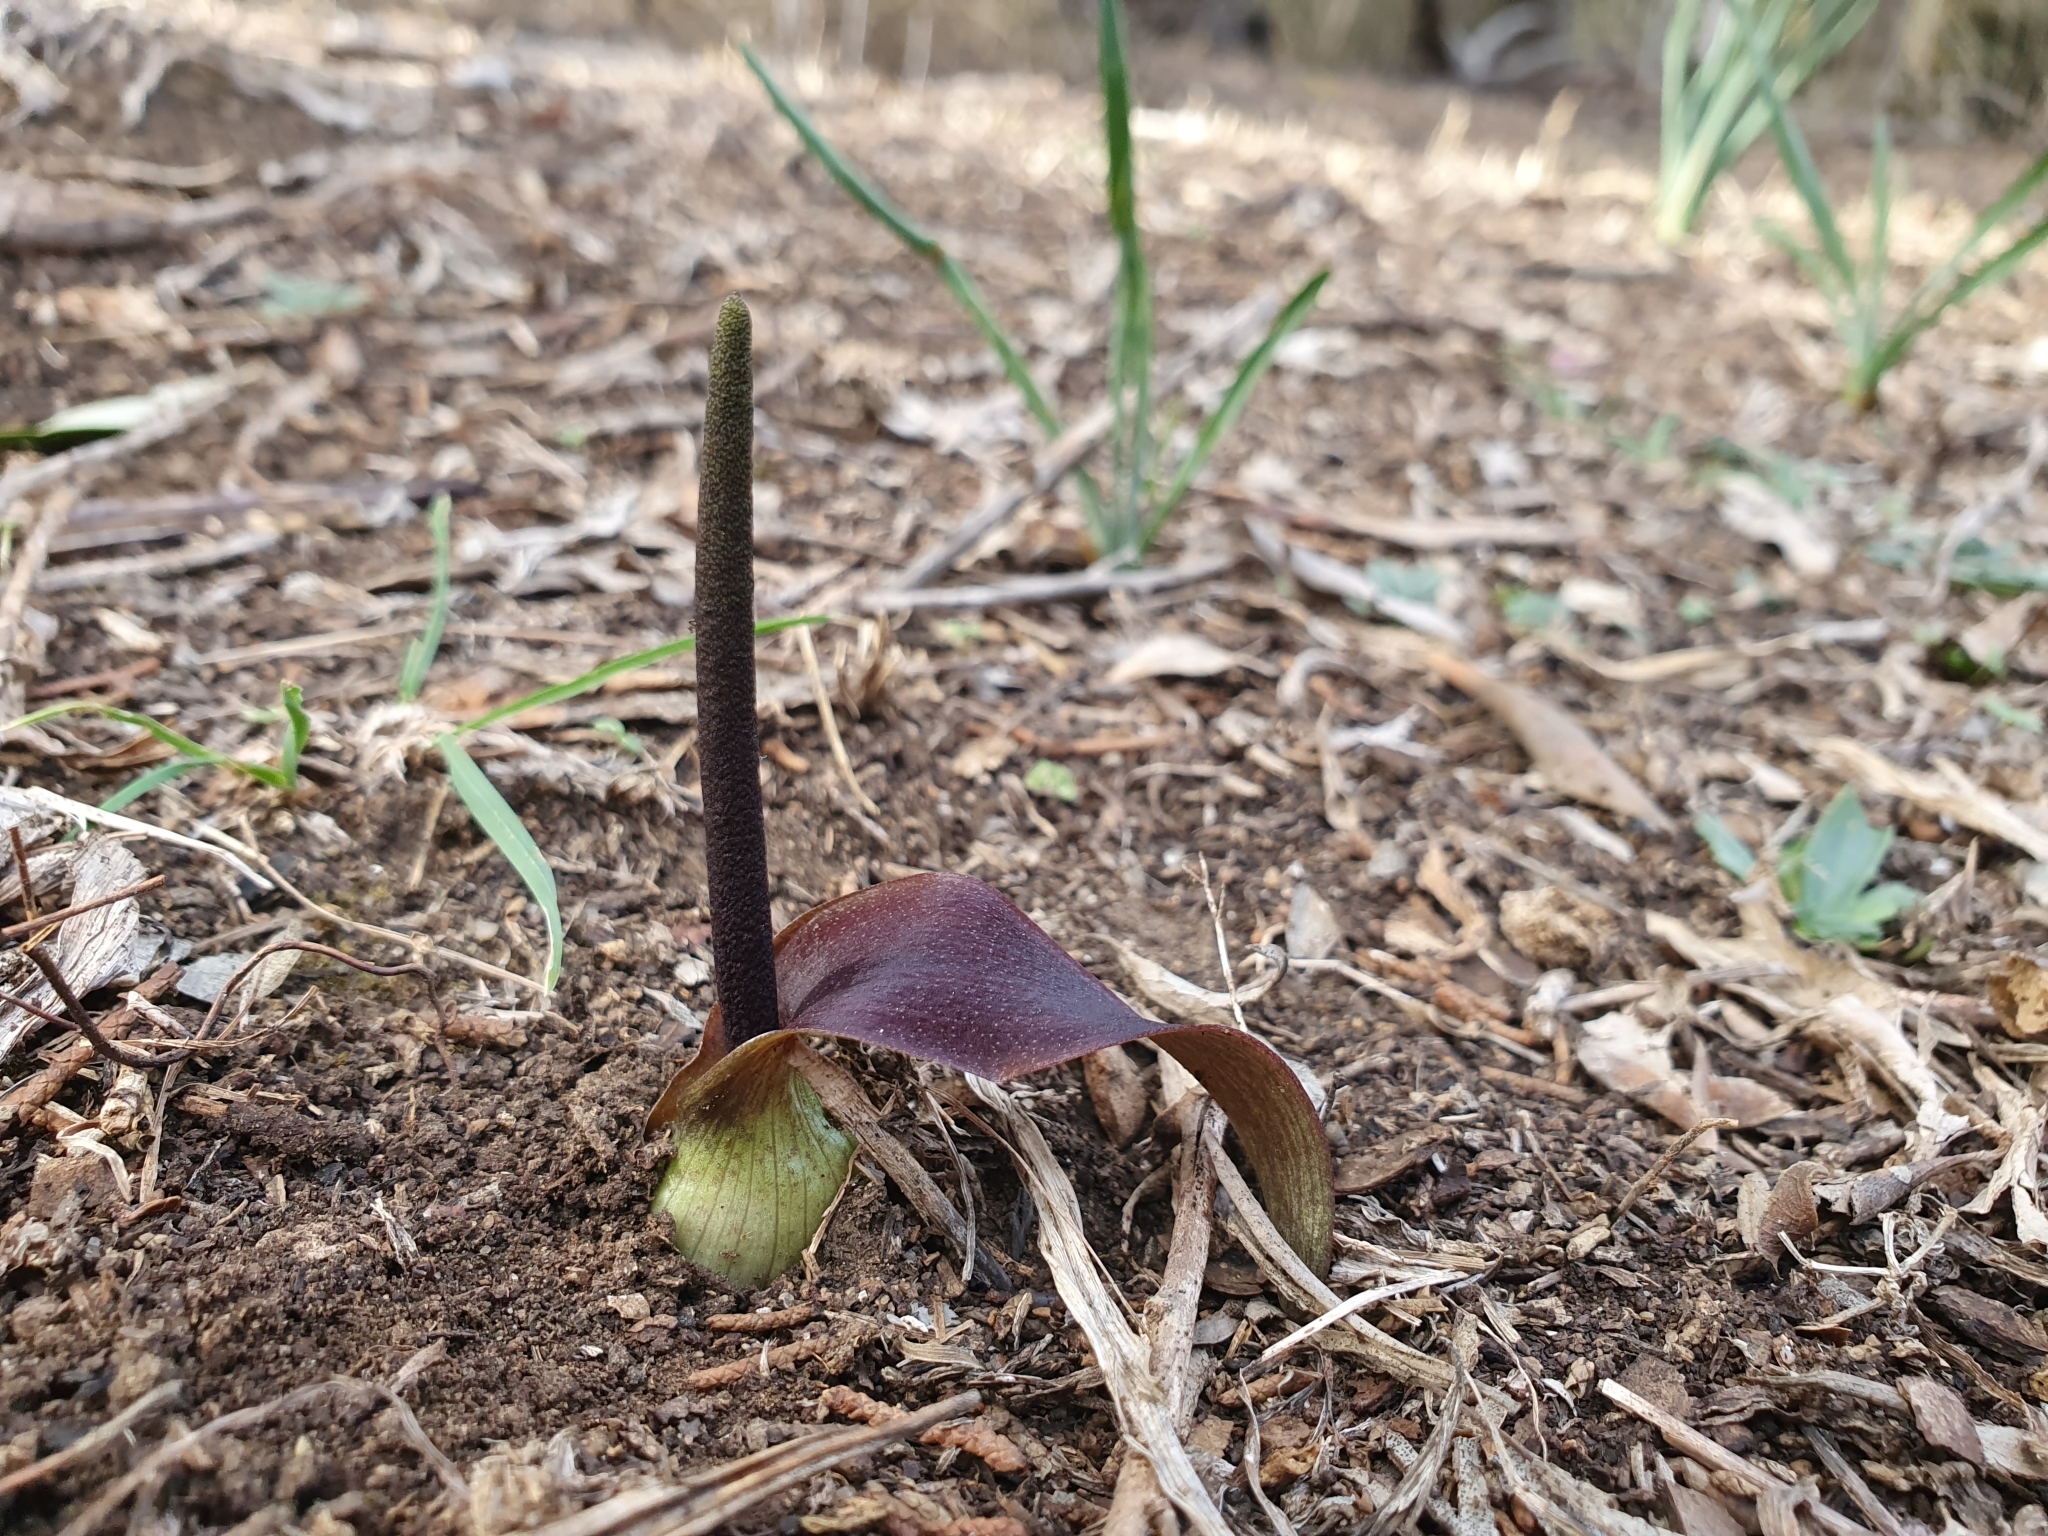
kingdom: Plantae
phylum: Tracheophyta
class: Liliopsida
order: Alismatales
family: Araceae
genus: Biarum
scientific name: Biarum dispar
